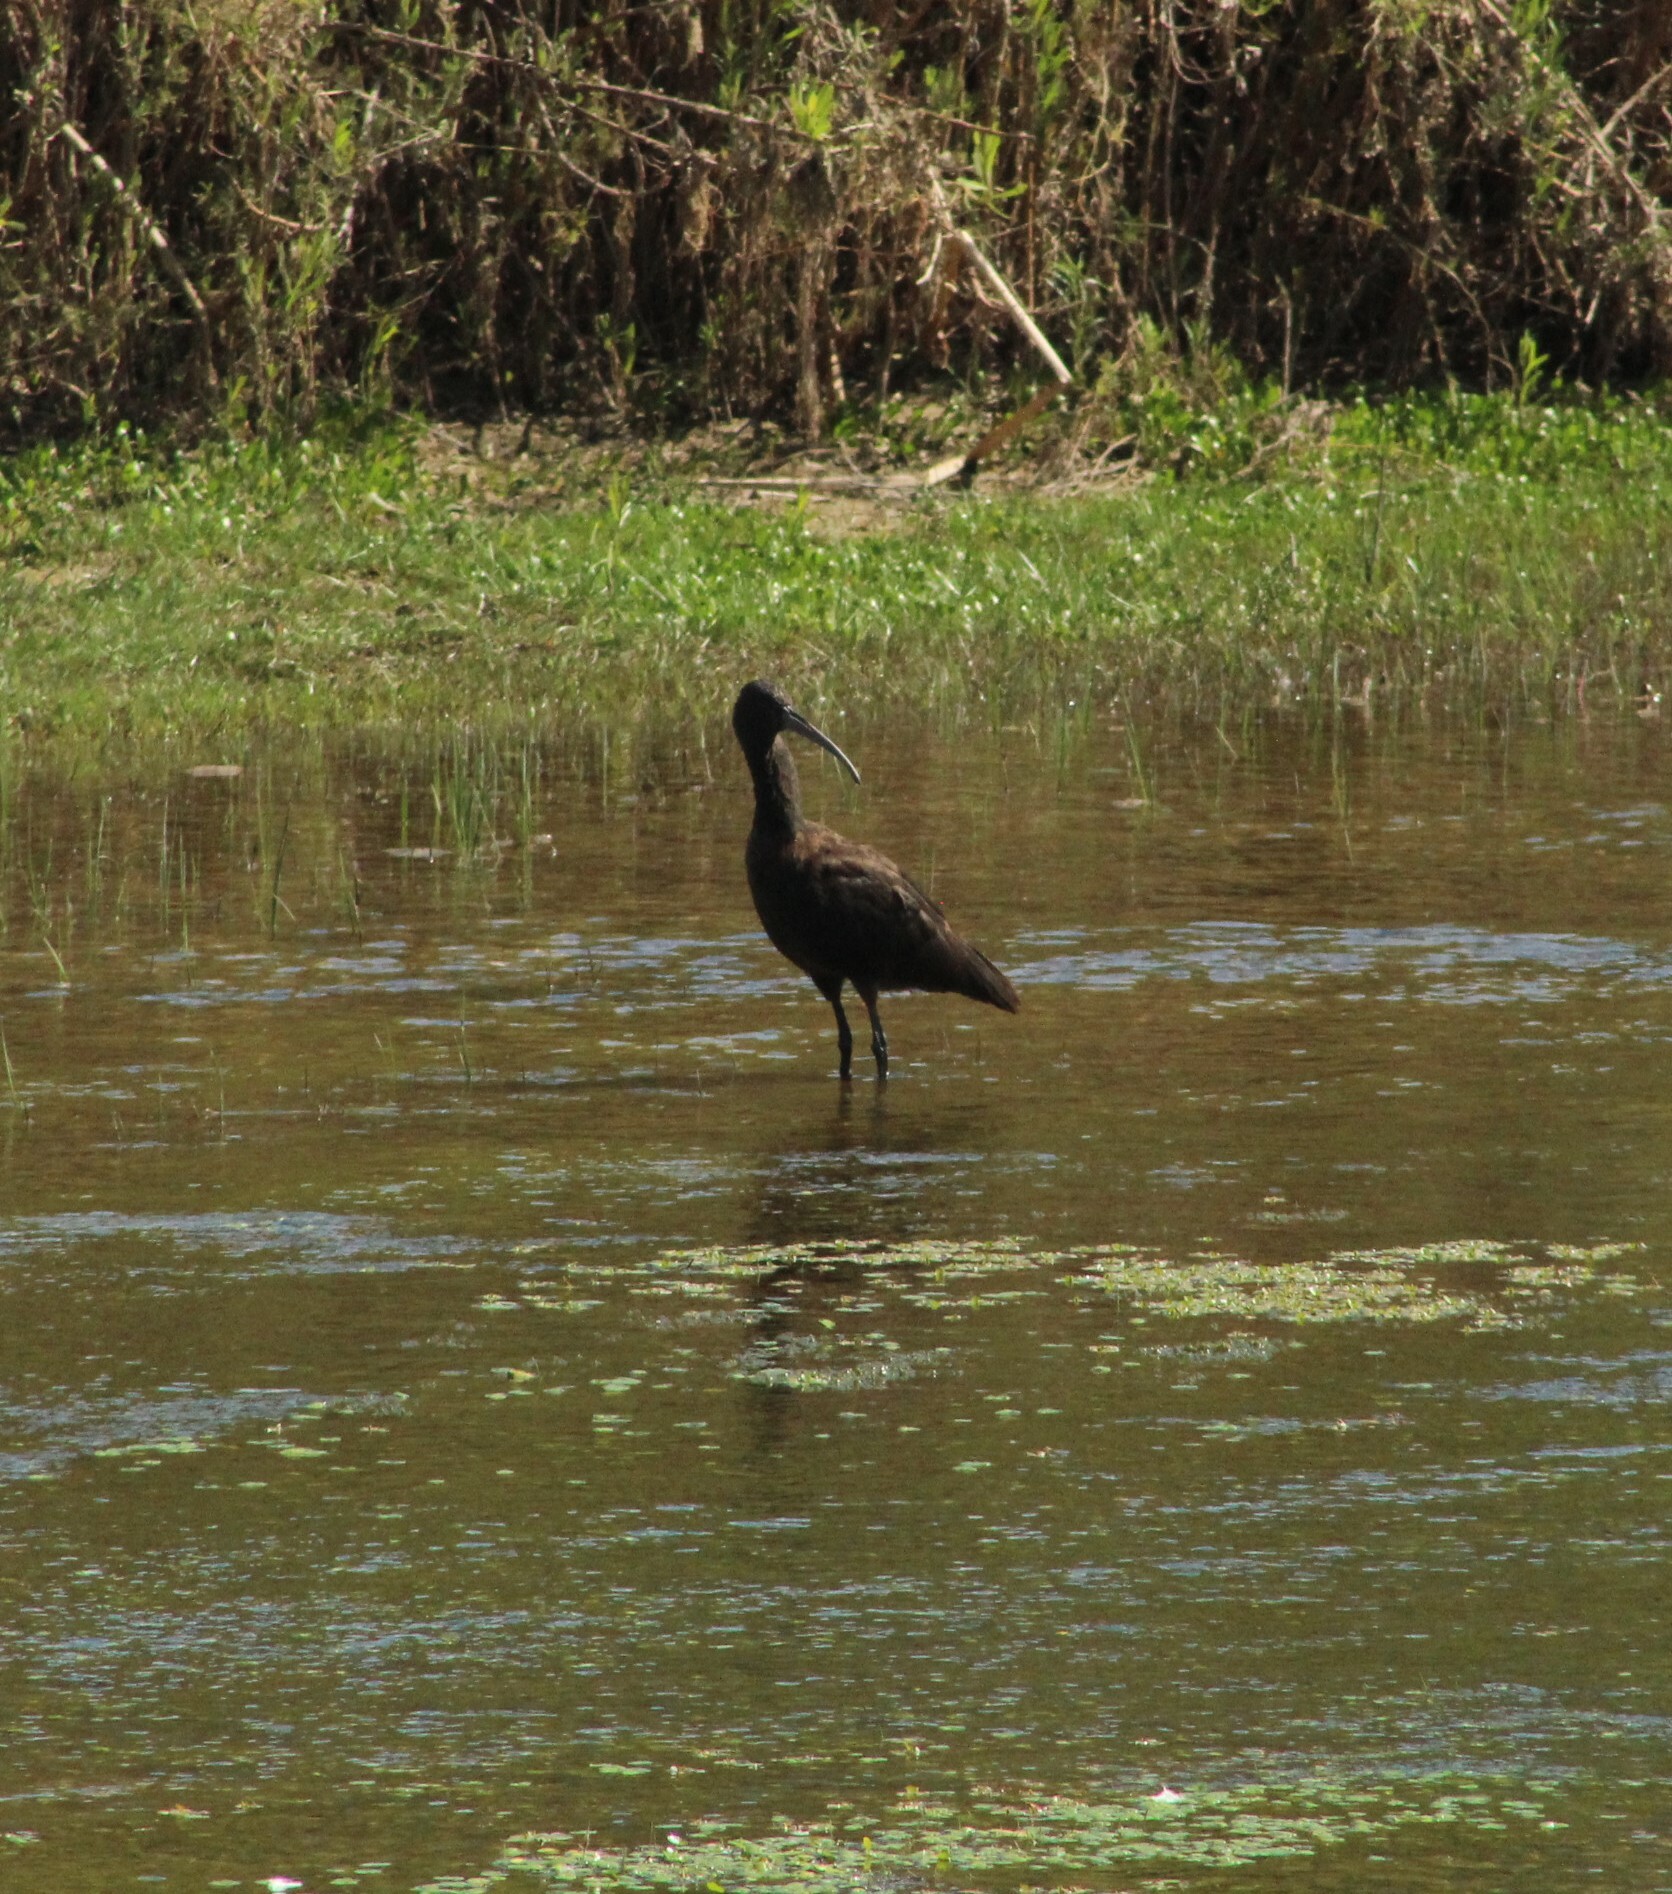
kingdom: Animalia
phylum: Chordata
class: Aves
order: Pelecaniformes
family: Threskiornithidae
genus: Plegadis
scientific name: Plegadis chihi
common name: White-faced ibis
